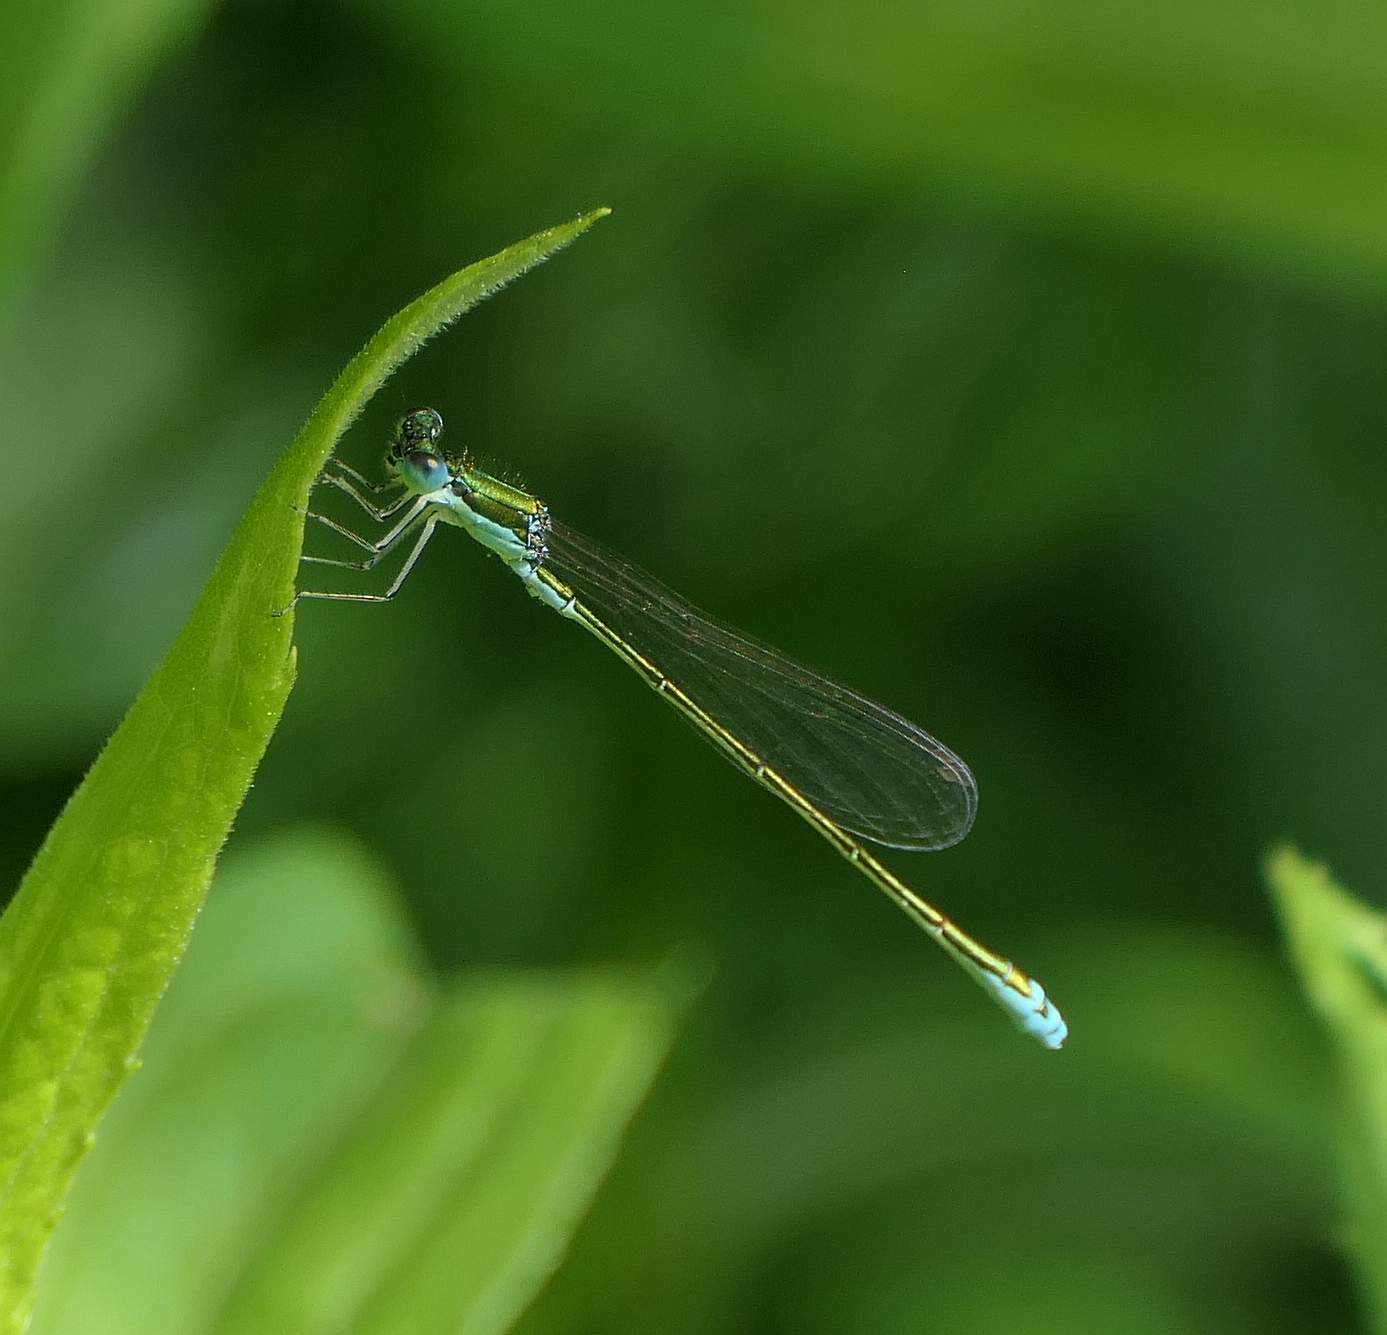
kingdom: Animalia
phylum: Arthropoda
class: Insecta
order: Odonata
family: Coenagrionidae
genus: Nehalennia
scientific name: Nehalennia irene
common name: Sedge sprite
